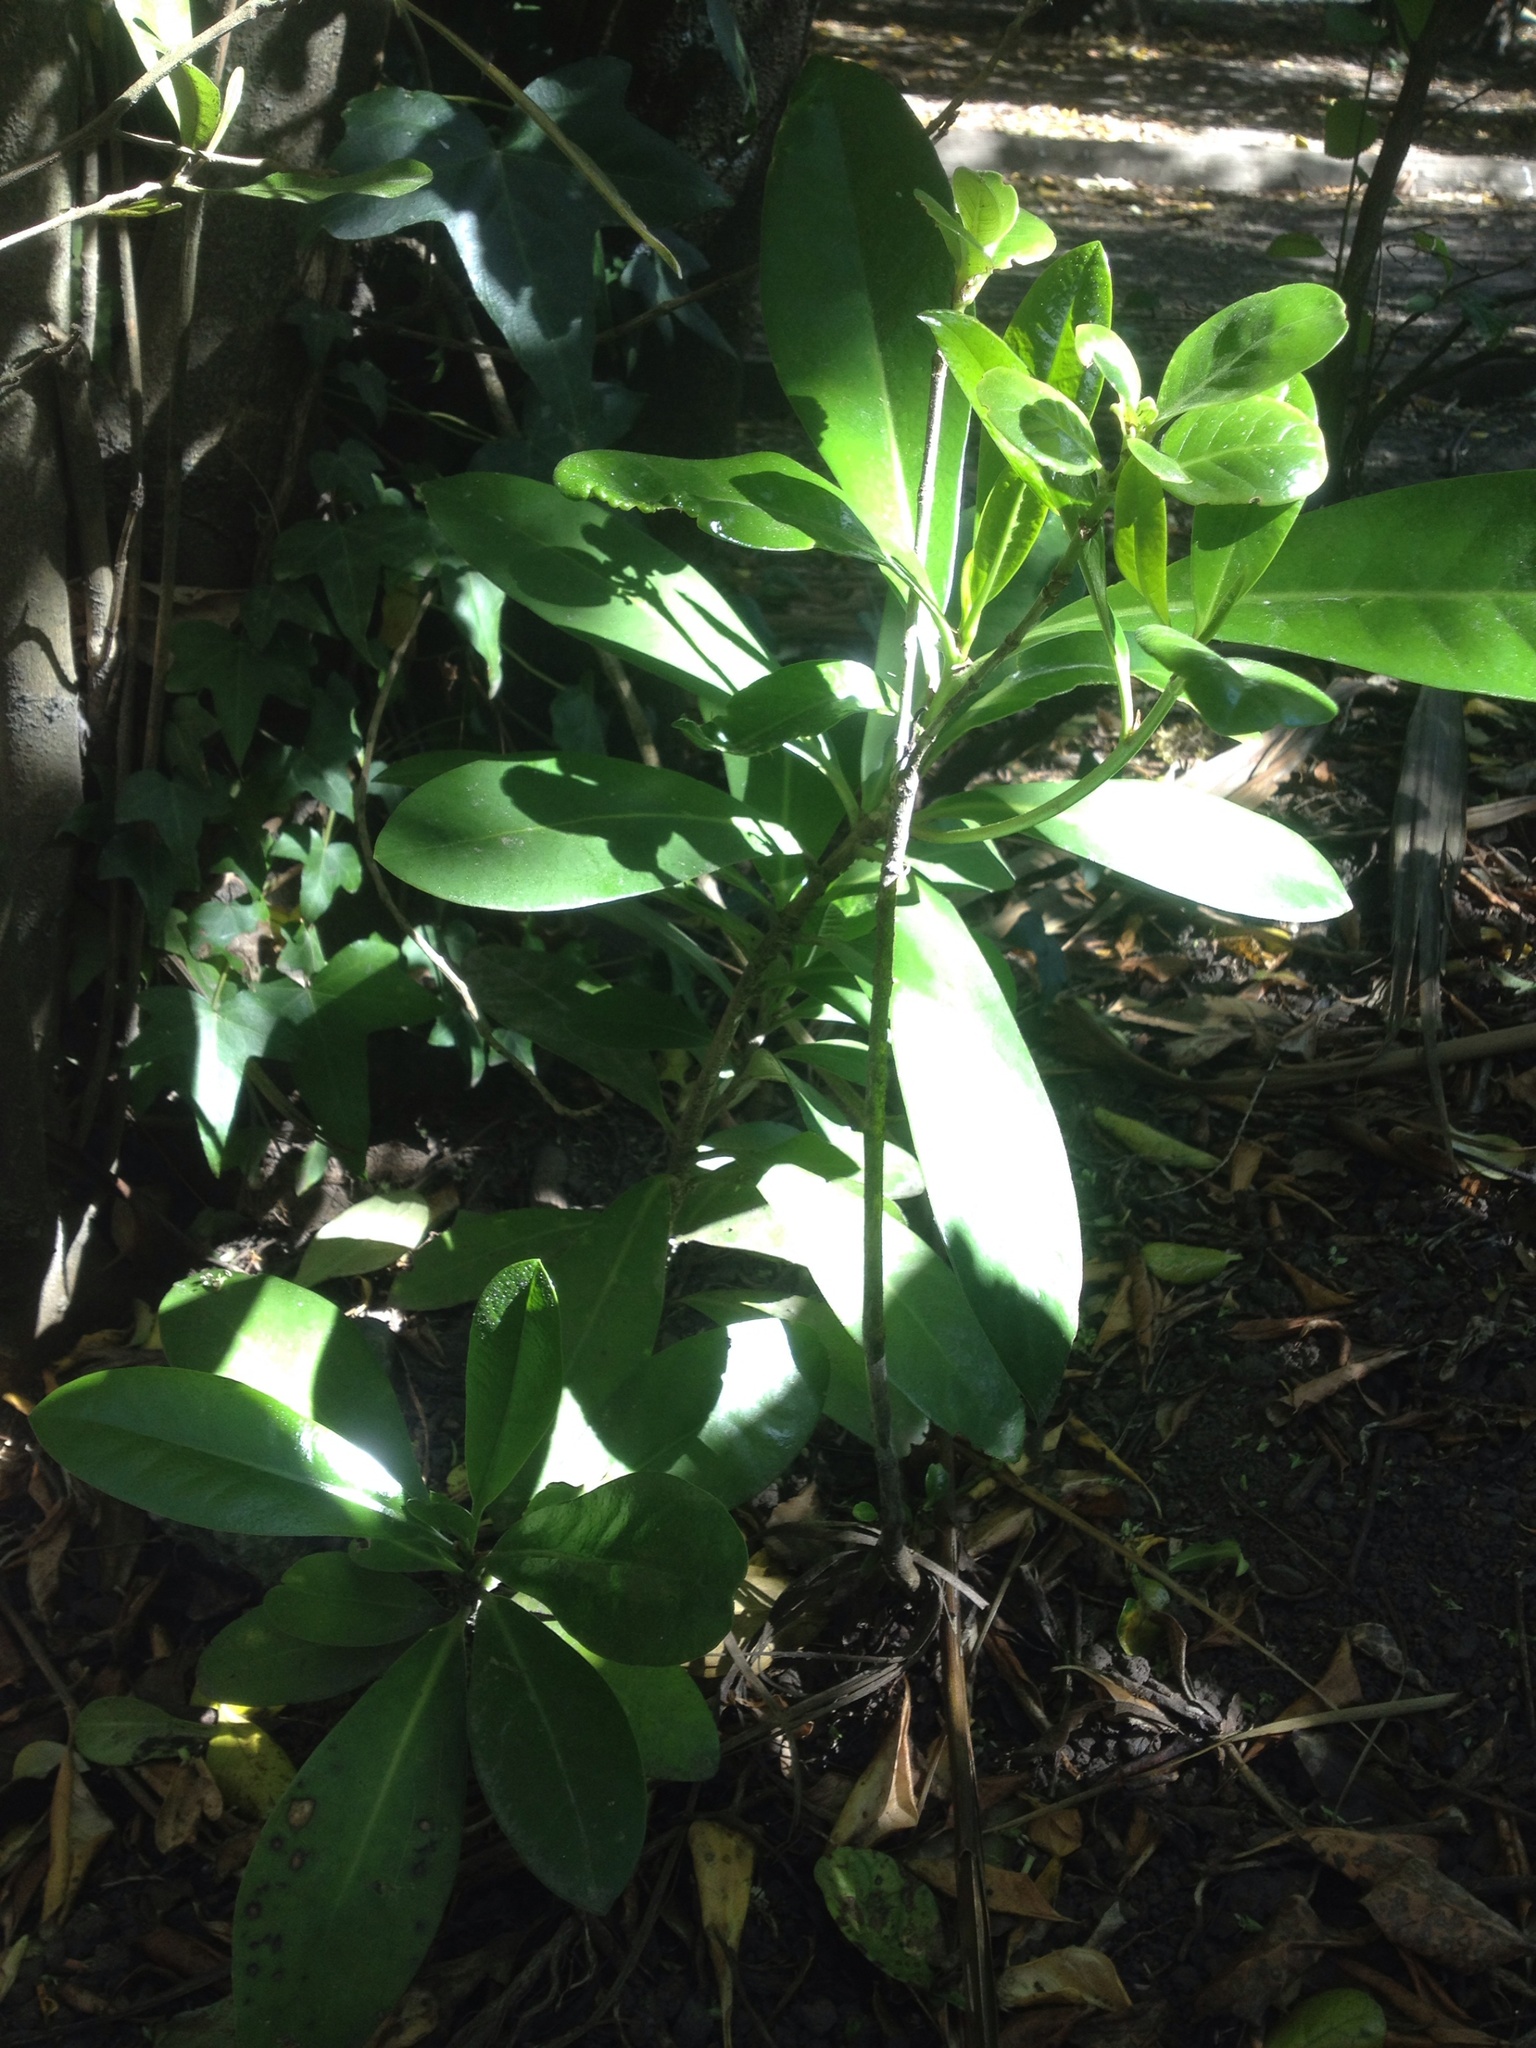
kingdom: Plantae
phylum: Tracheophyta
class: Magnoliopsida
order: Cucurbitales
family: Corynocarpaceae
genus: Corynocarpus
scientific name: Corynocarpus laevigatus
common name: New zealand laurel
